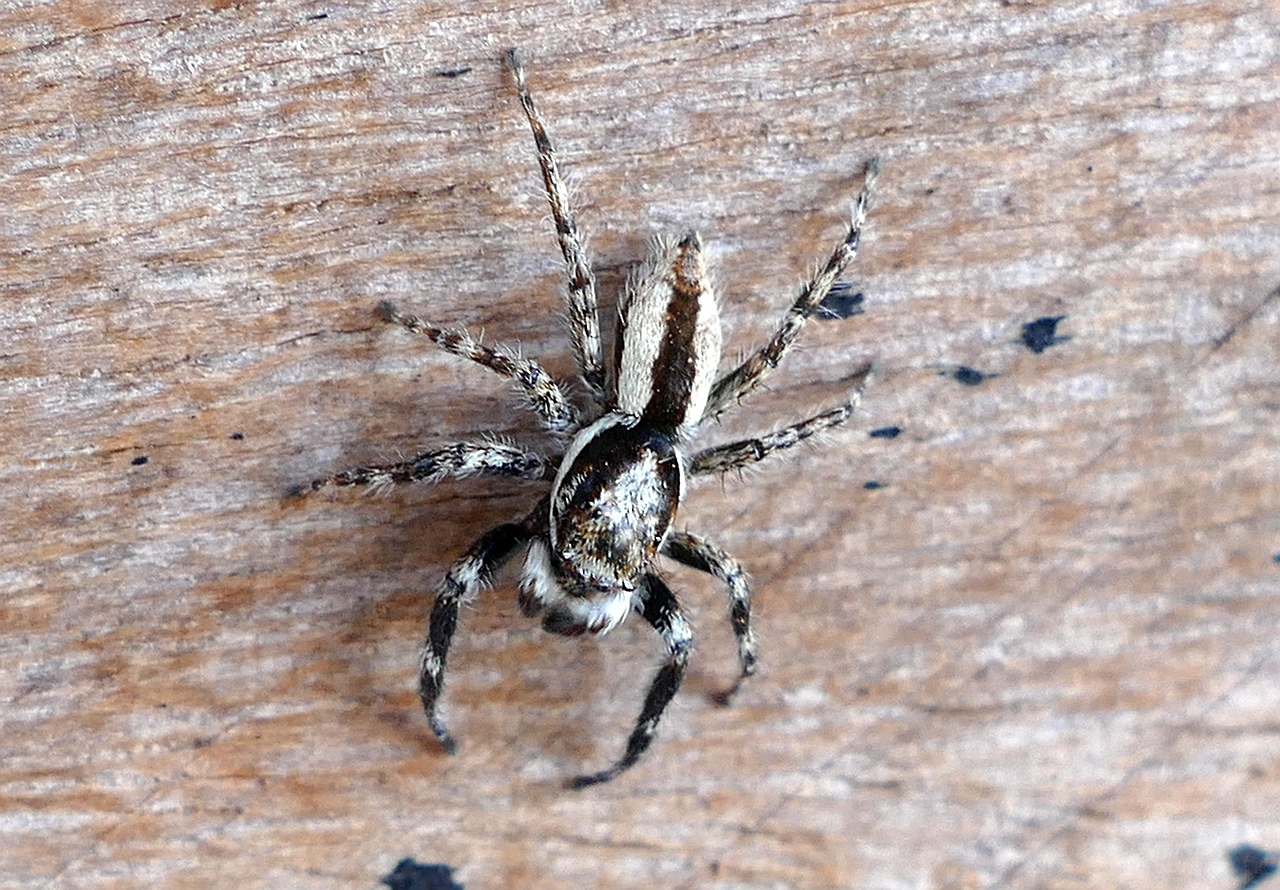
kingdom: Animalia
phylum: Arthropoda
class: Arachnida
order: Araneae
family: Salticidae
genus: Menemerus
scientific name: Menemerus bivittatus
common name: Gray wall jumper
